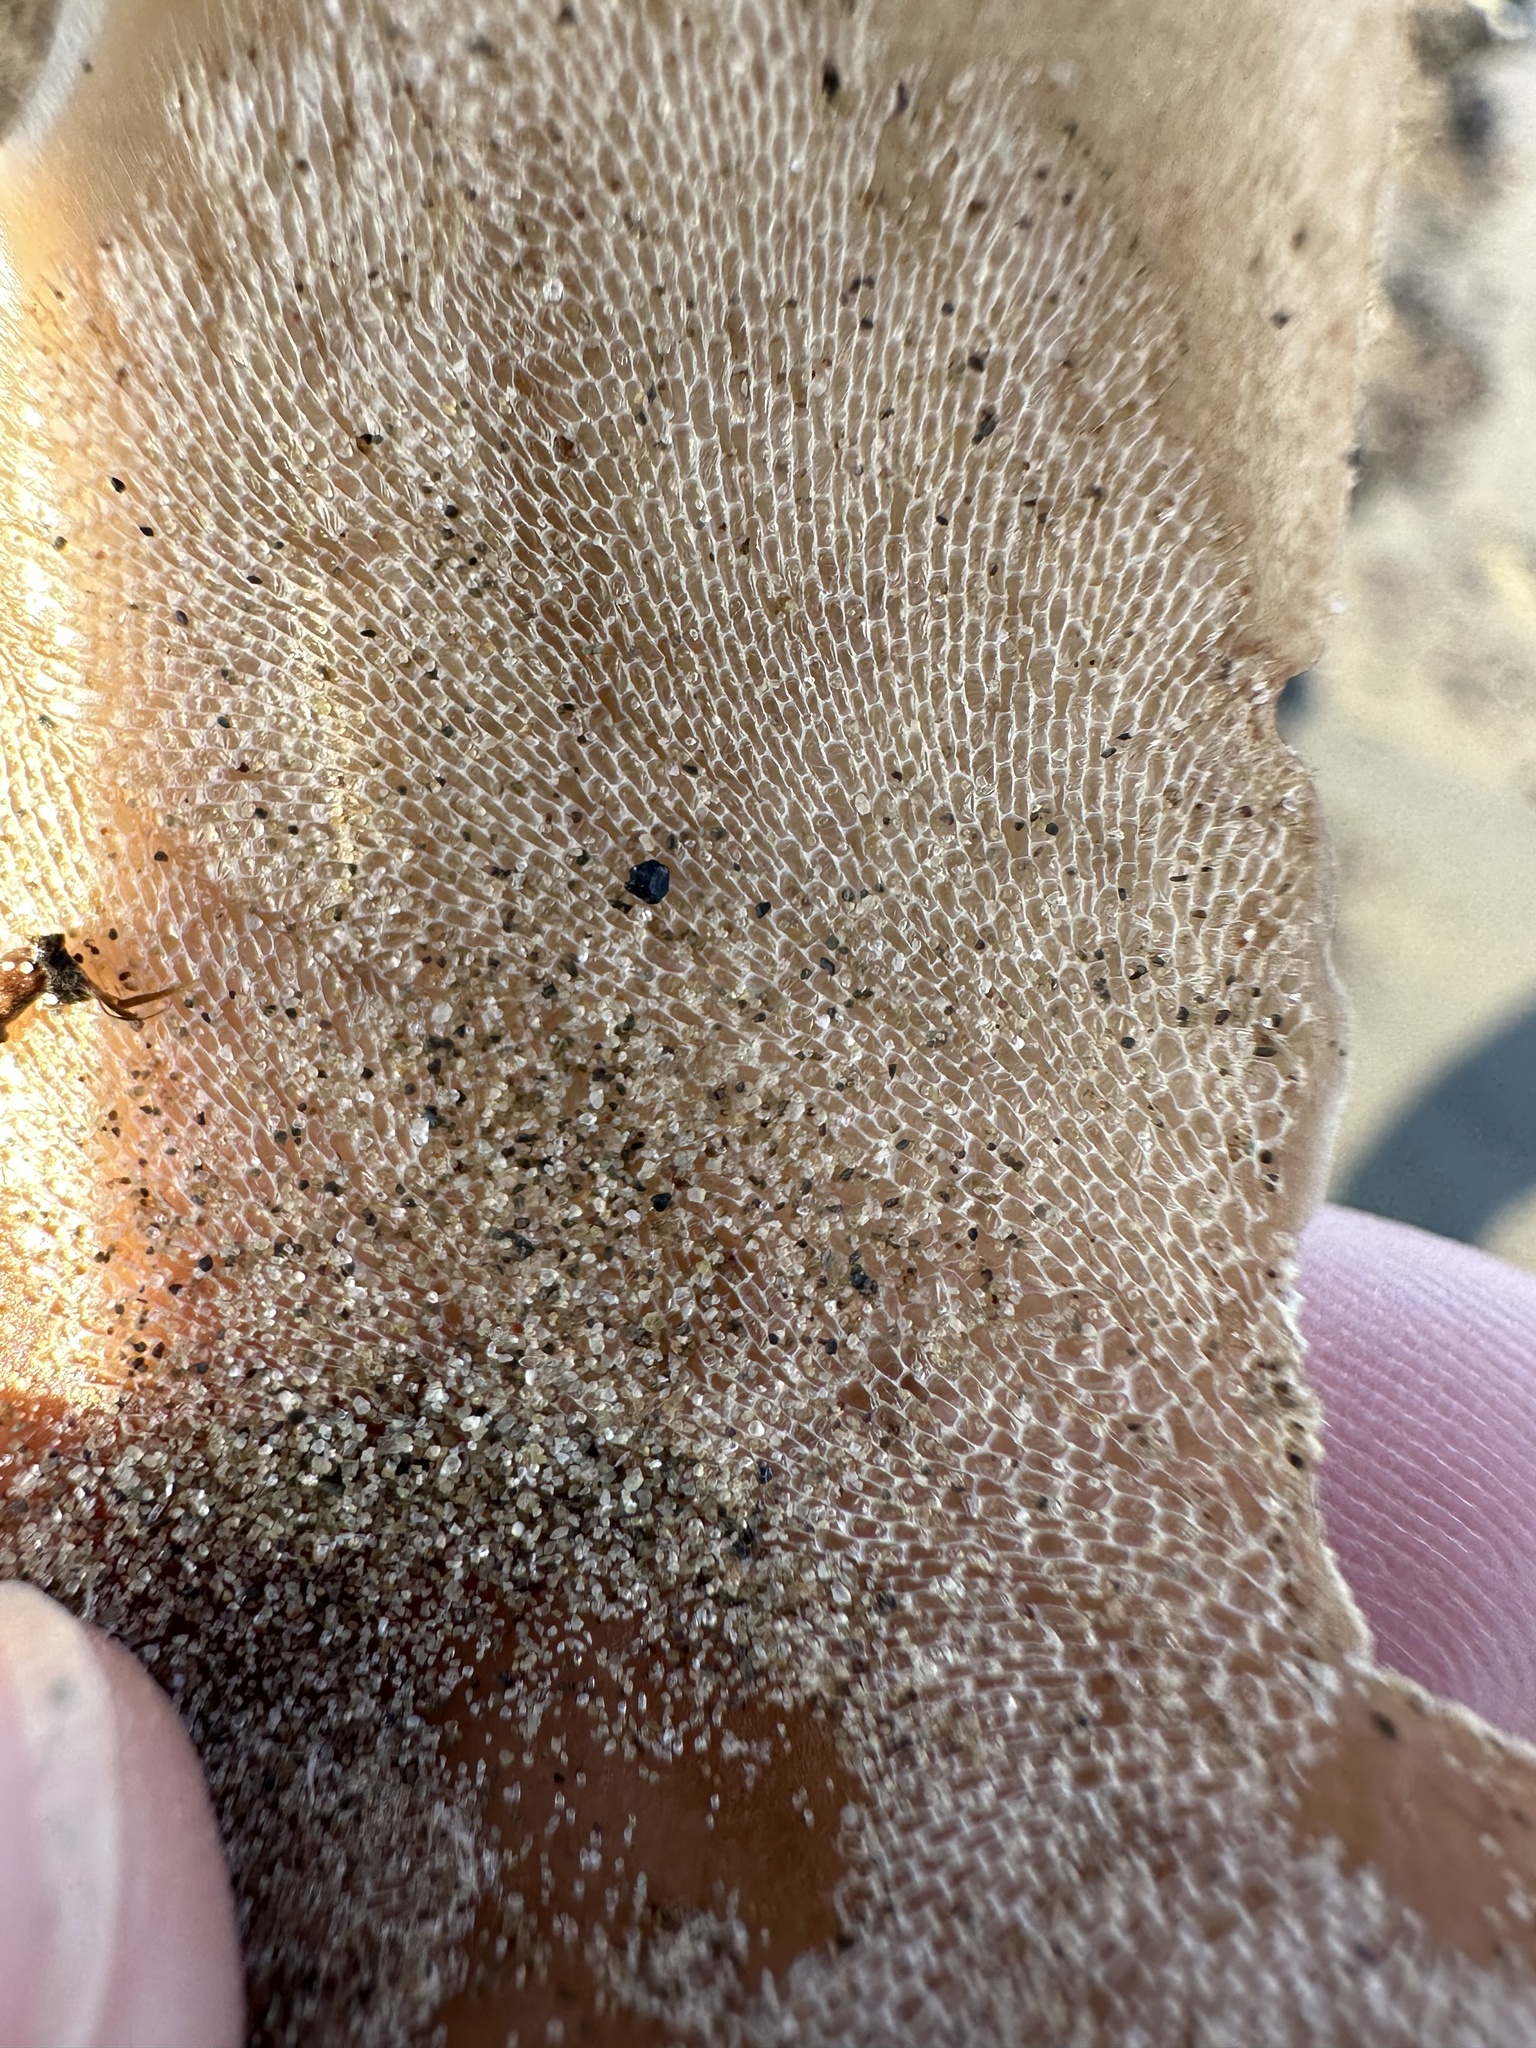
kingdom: Animalia
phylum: Bryozoa
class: Gymnolaemata
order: Cheilostomatida
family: Membraniporidae
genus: Membranipora
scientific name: Membranipora membranacea
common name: Sea mat
